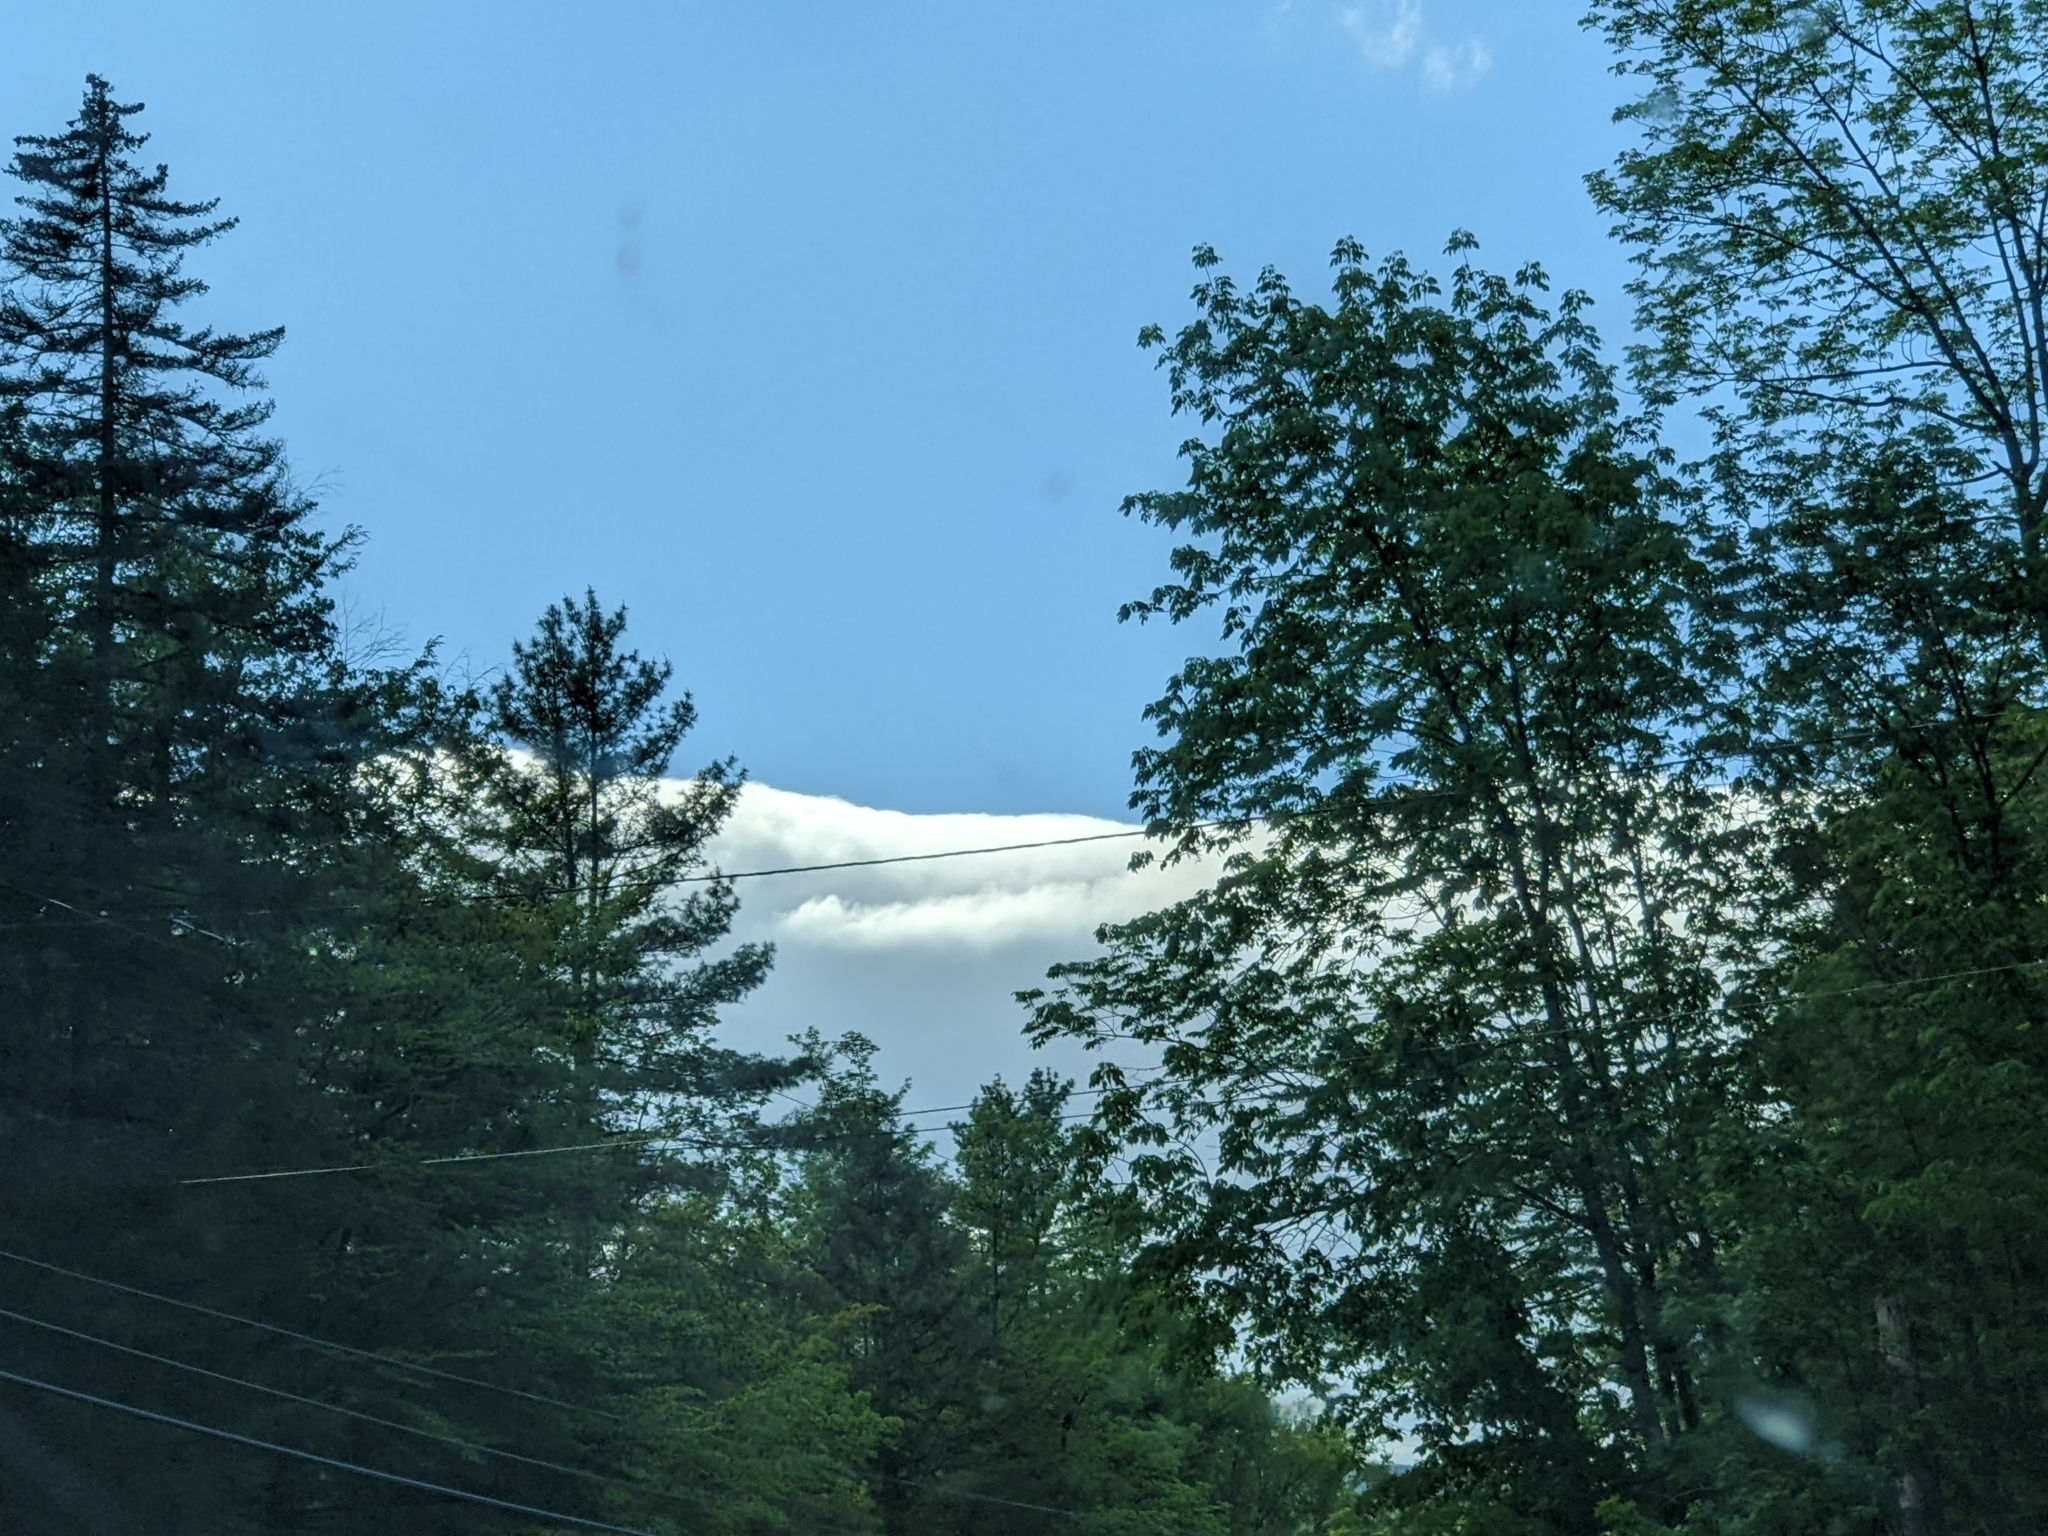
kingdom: Plantae
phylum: Tracheophyta
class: Pinopsida
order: Pinales
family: Pinaceae
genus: Pinus
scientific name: Pinus strobus
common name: Weymouth pine
